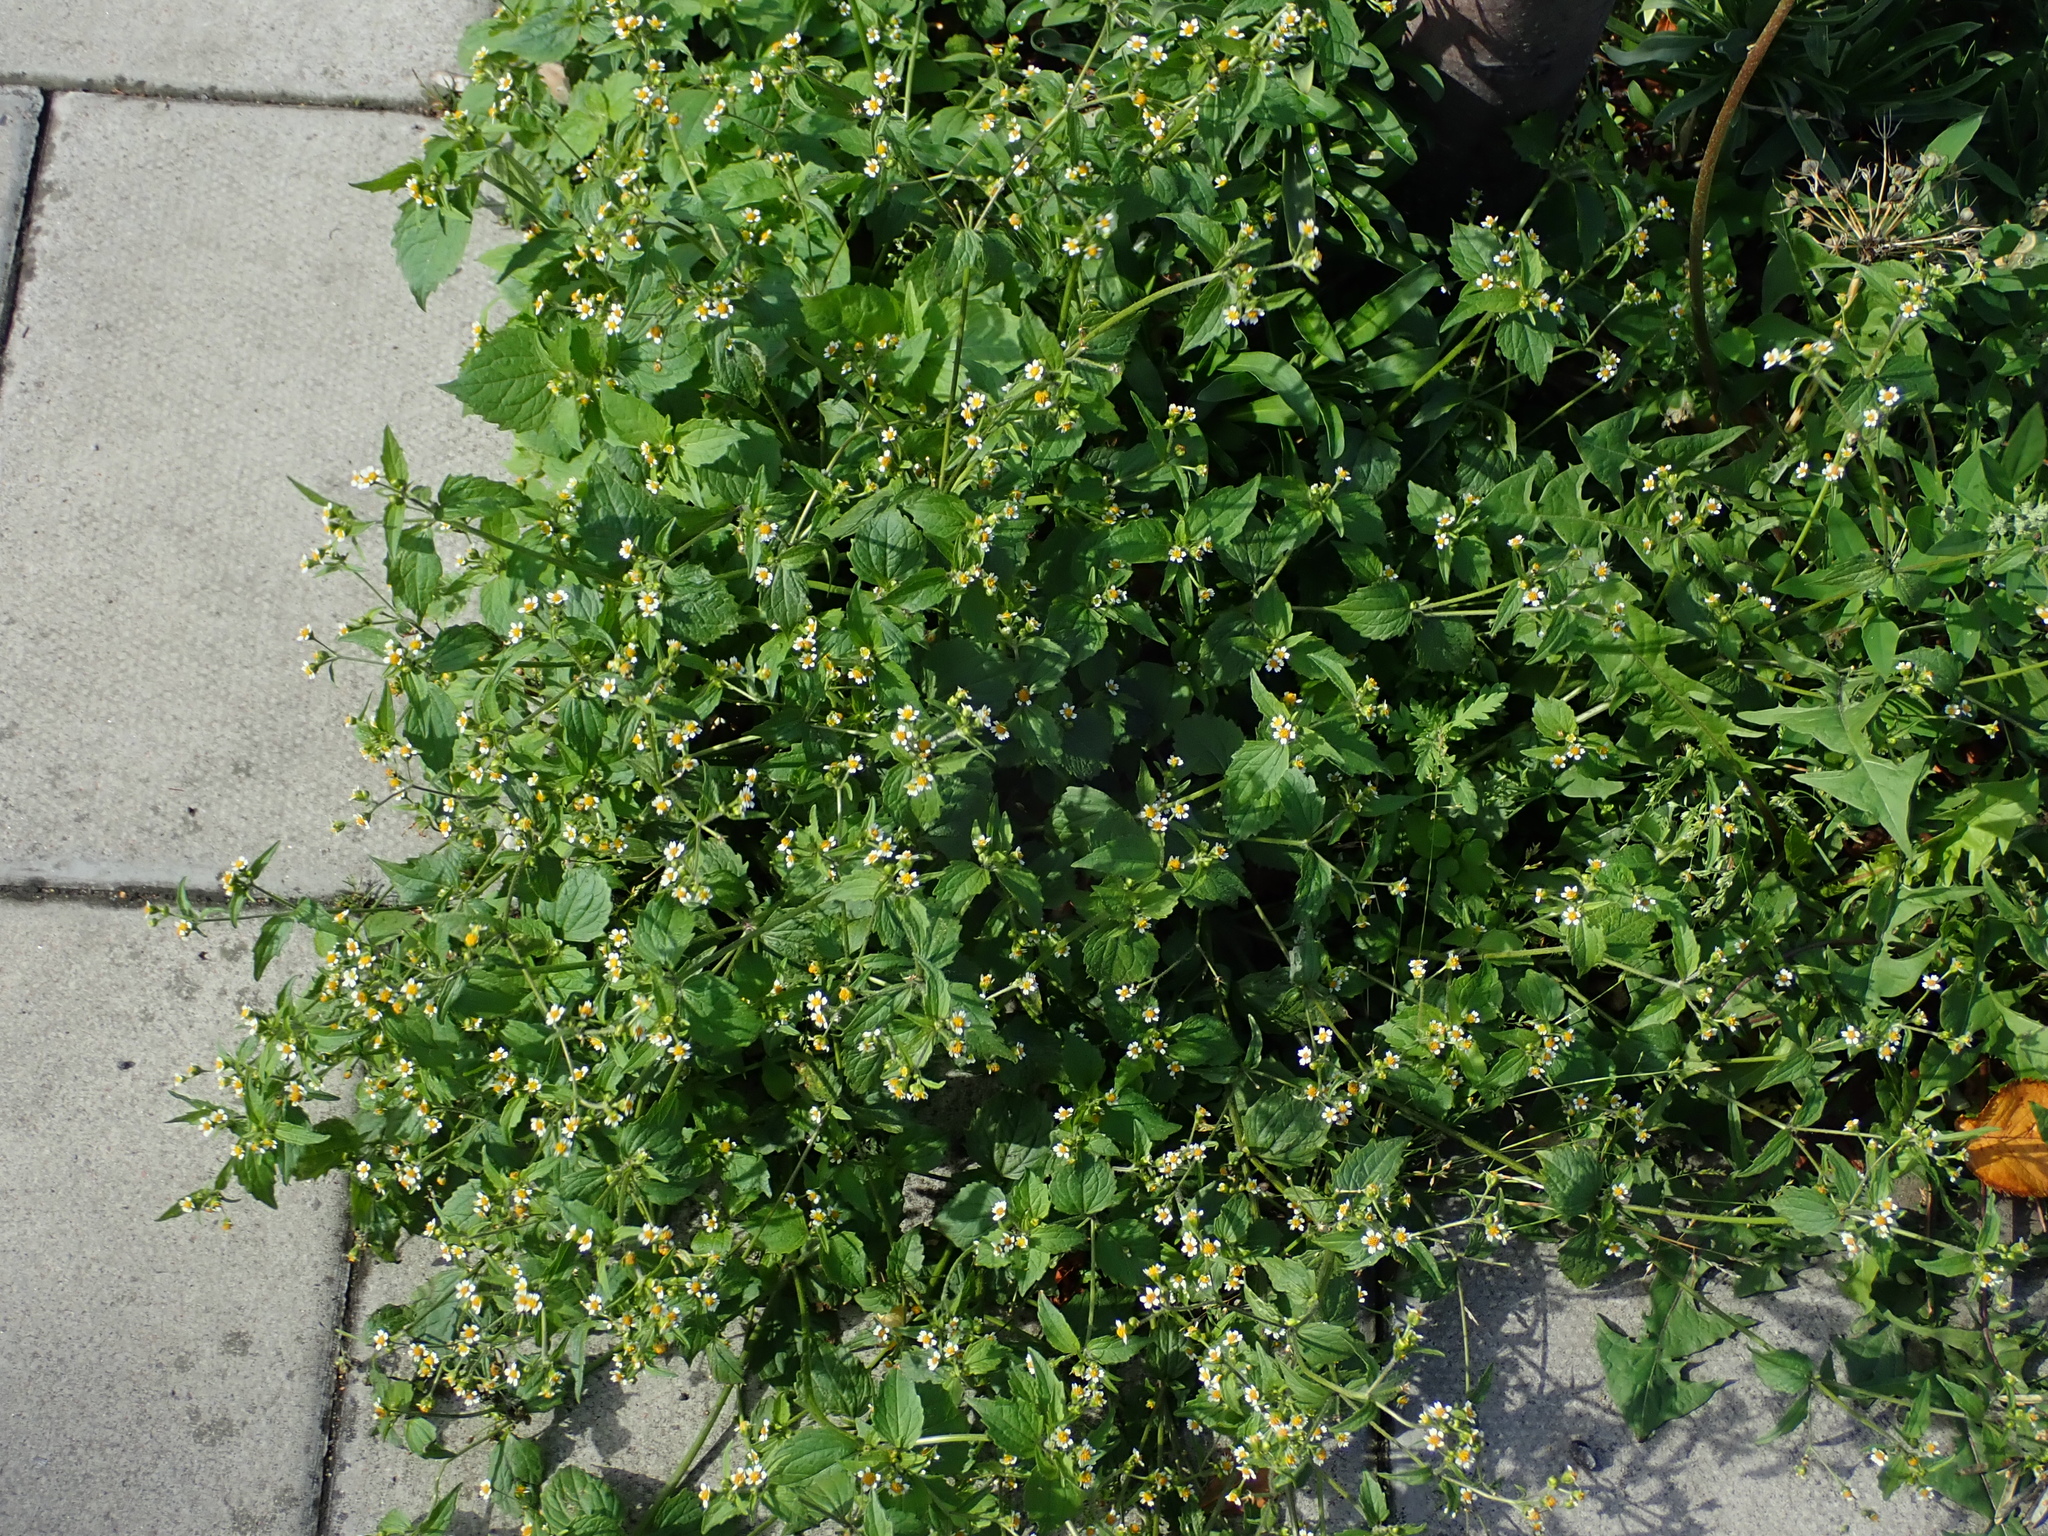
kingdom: Plantae
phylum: Tracheophyta
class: Magnoliopsida
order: Asterales
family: Asteraceae
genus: Galinsoga
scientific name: Galinsoga quadriradiata
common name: Shaggy soldier
